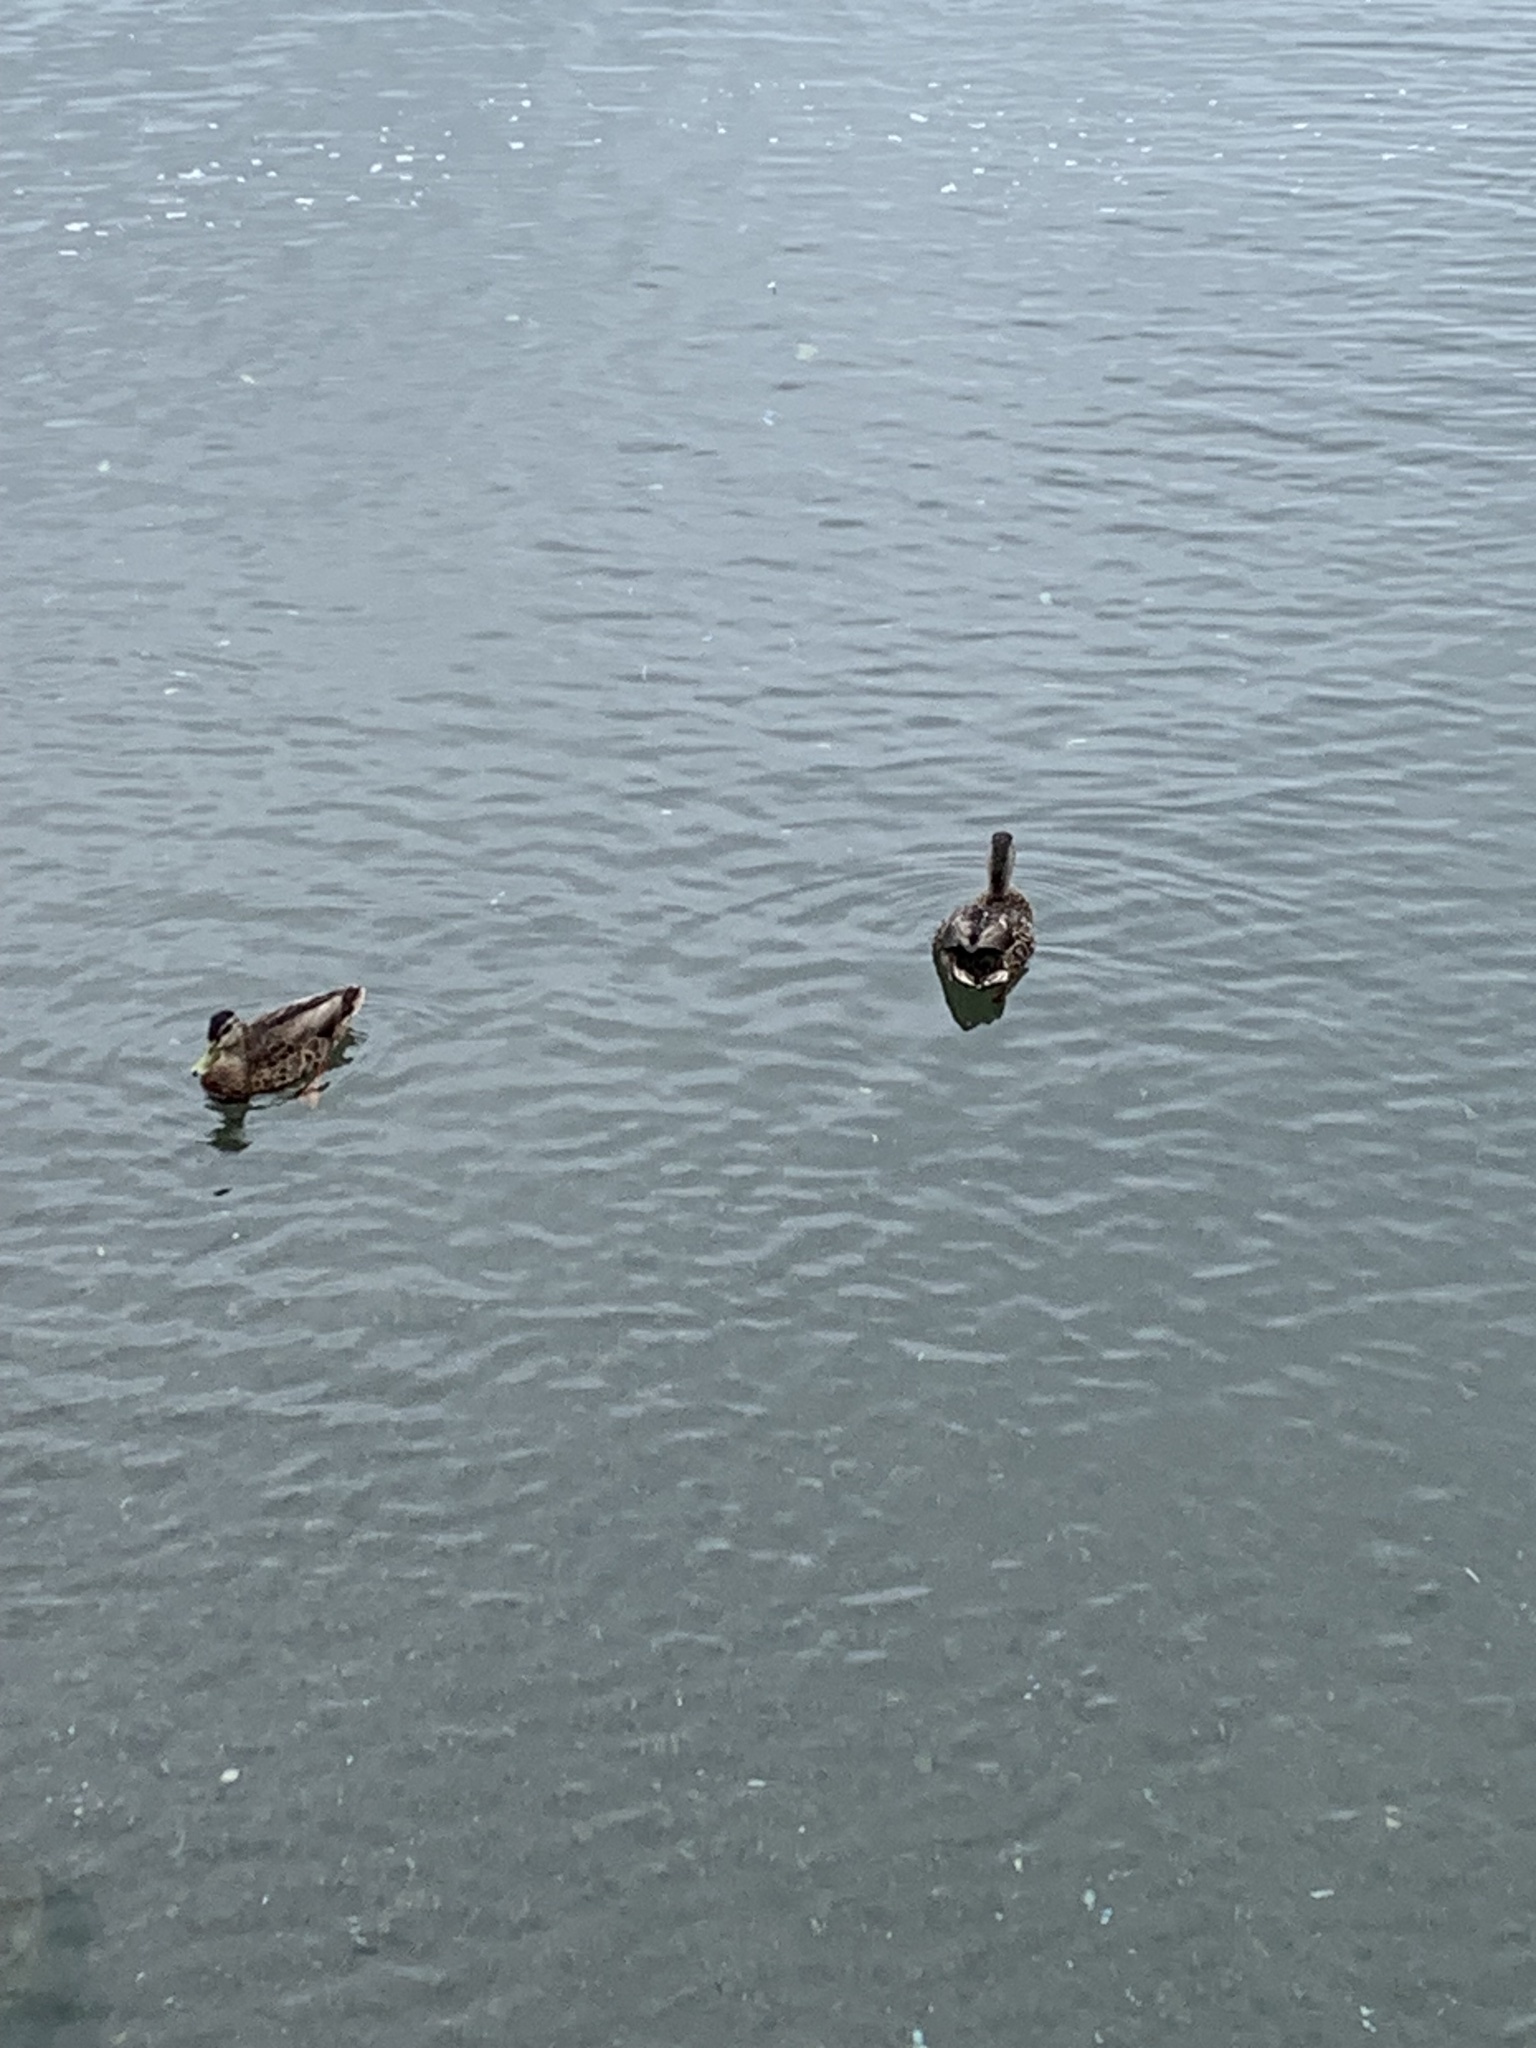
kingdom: Animalia
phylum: Chordata
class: Aves
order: Anseriformes
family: Anatidae
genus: Anas
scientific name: Anas platyrhynchos
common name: Mallard
